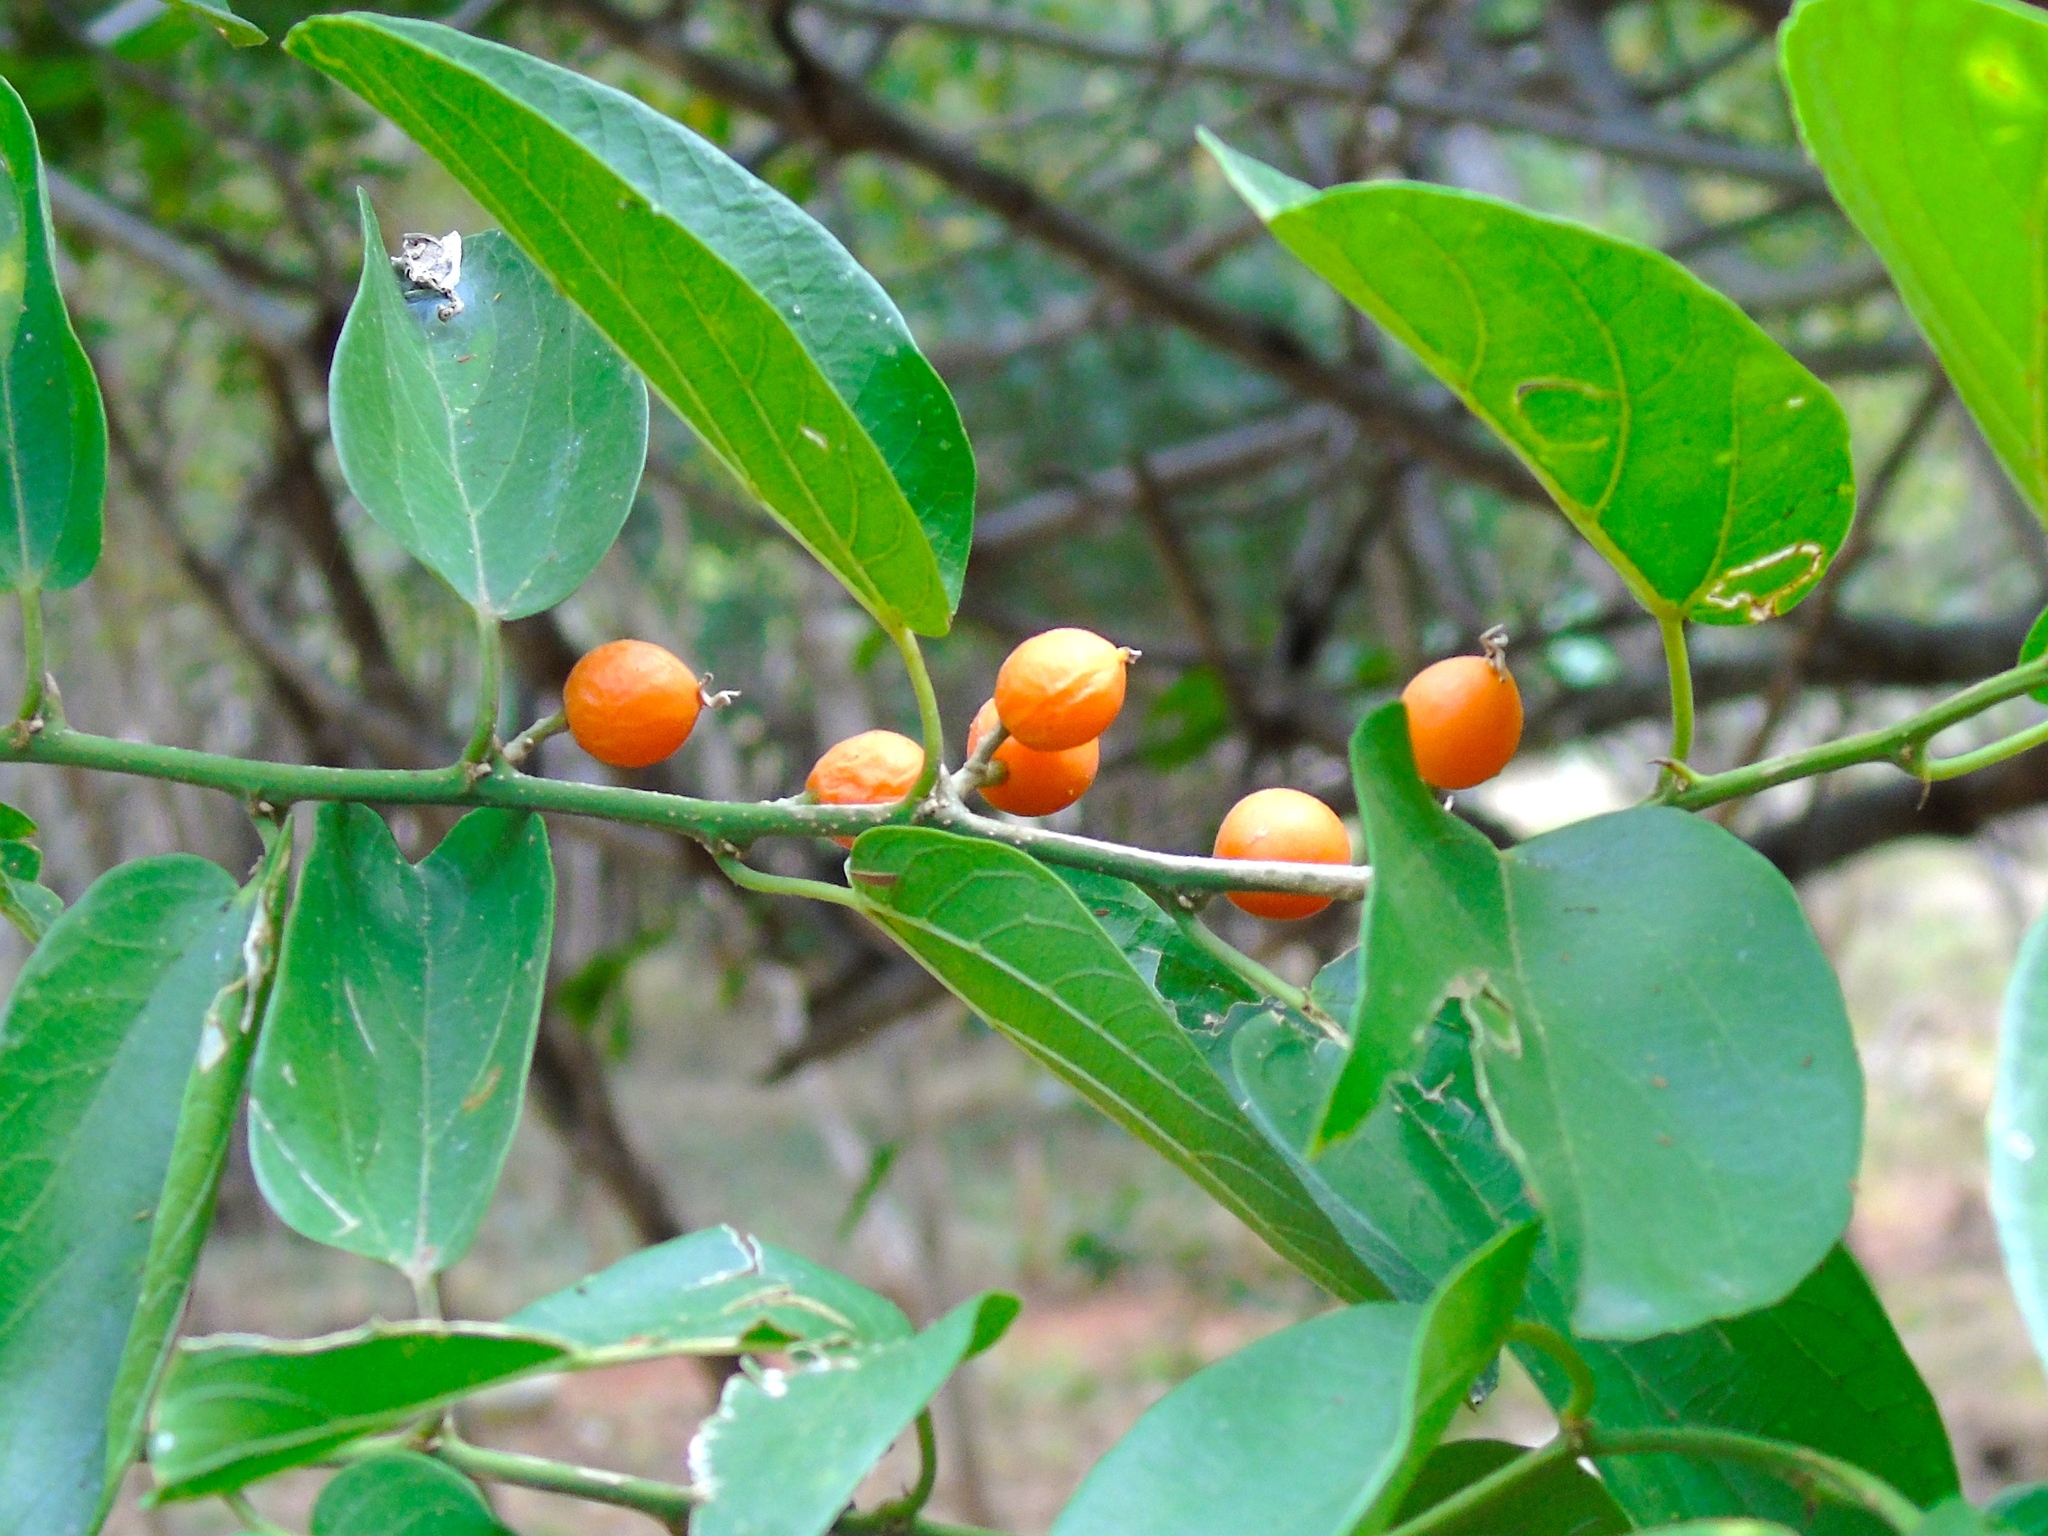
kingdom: Plantae
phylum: Tracheophyta
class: Magnoliopsida
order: Rosales
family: Cannabaceae
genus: Celtis
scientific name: Celtis iguanaea
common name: Iguana hackberry
